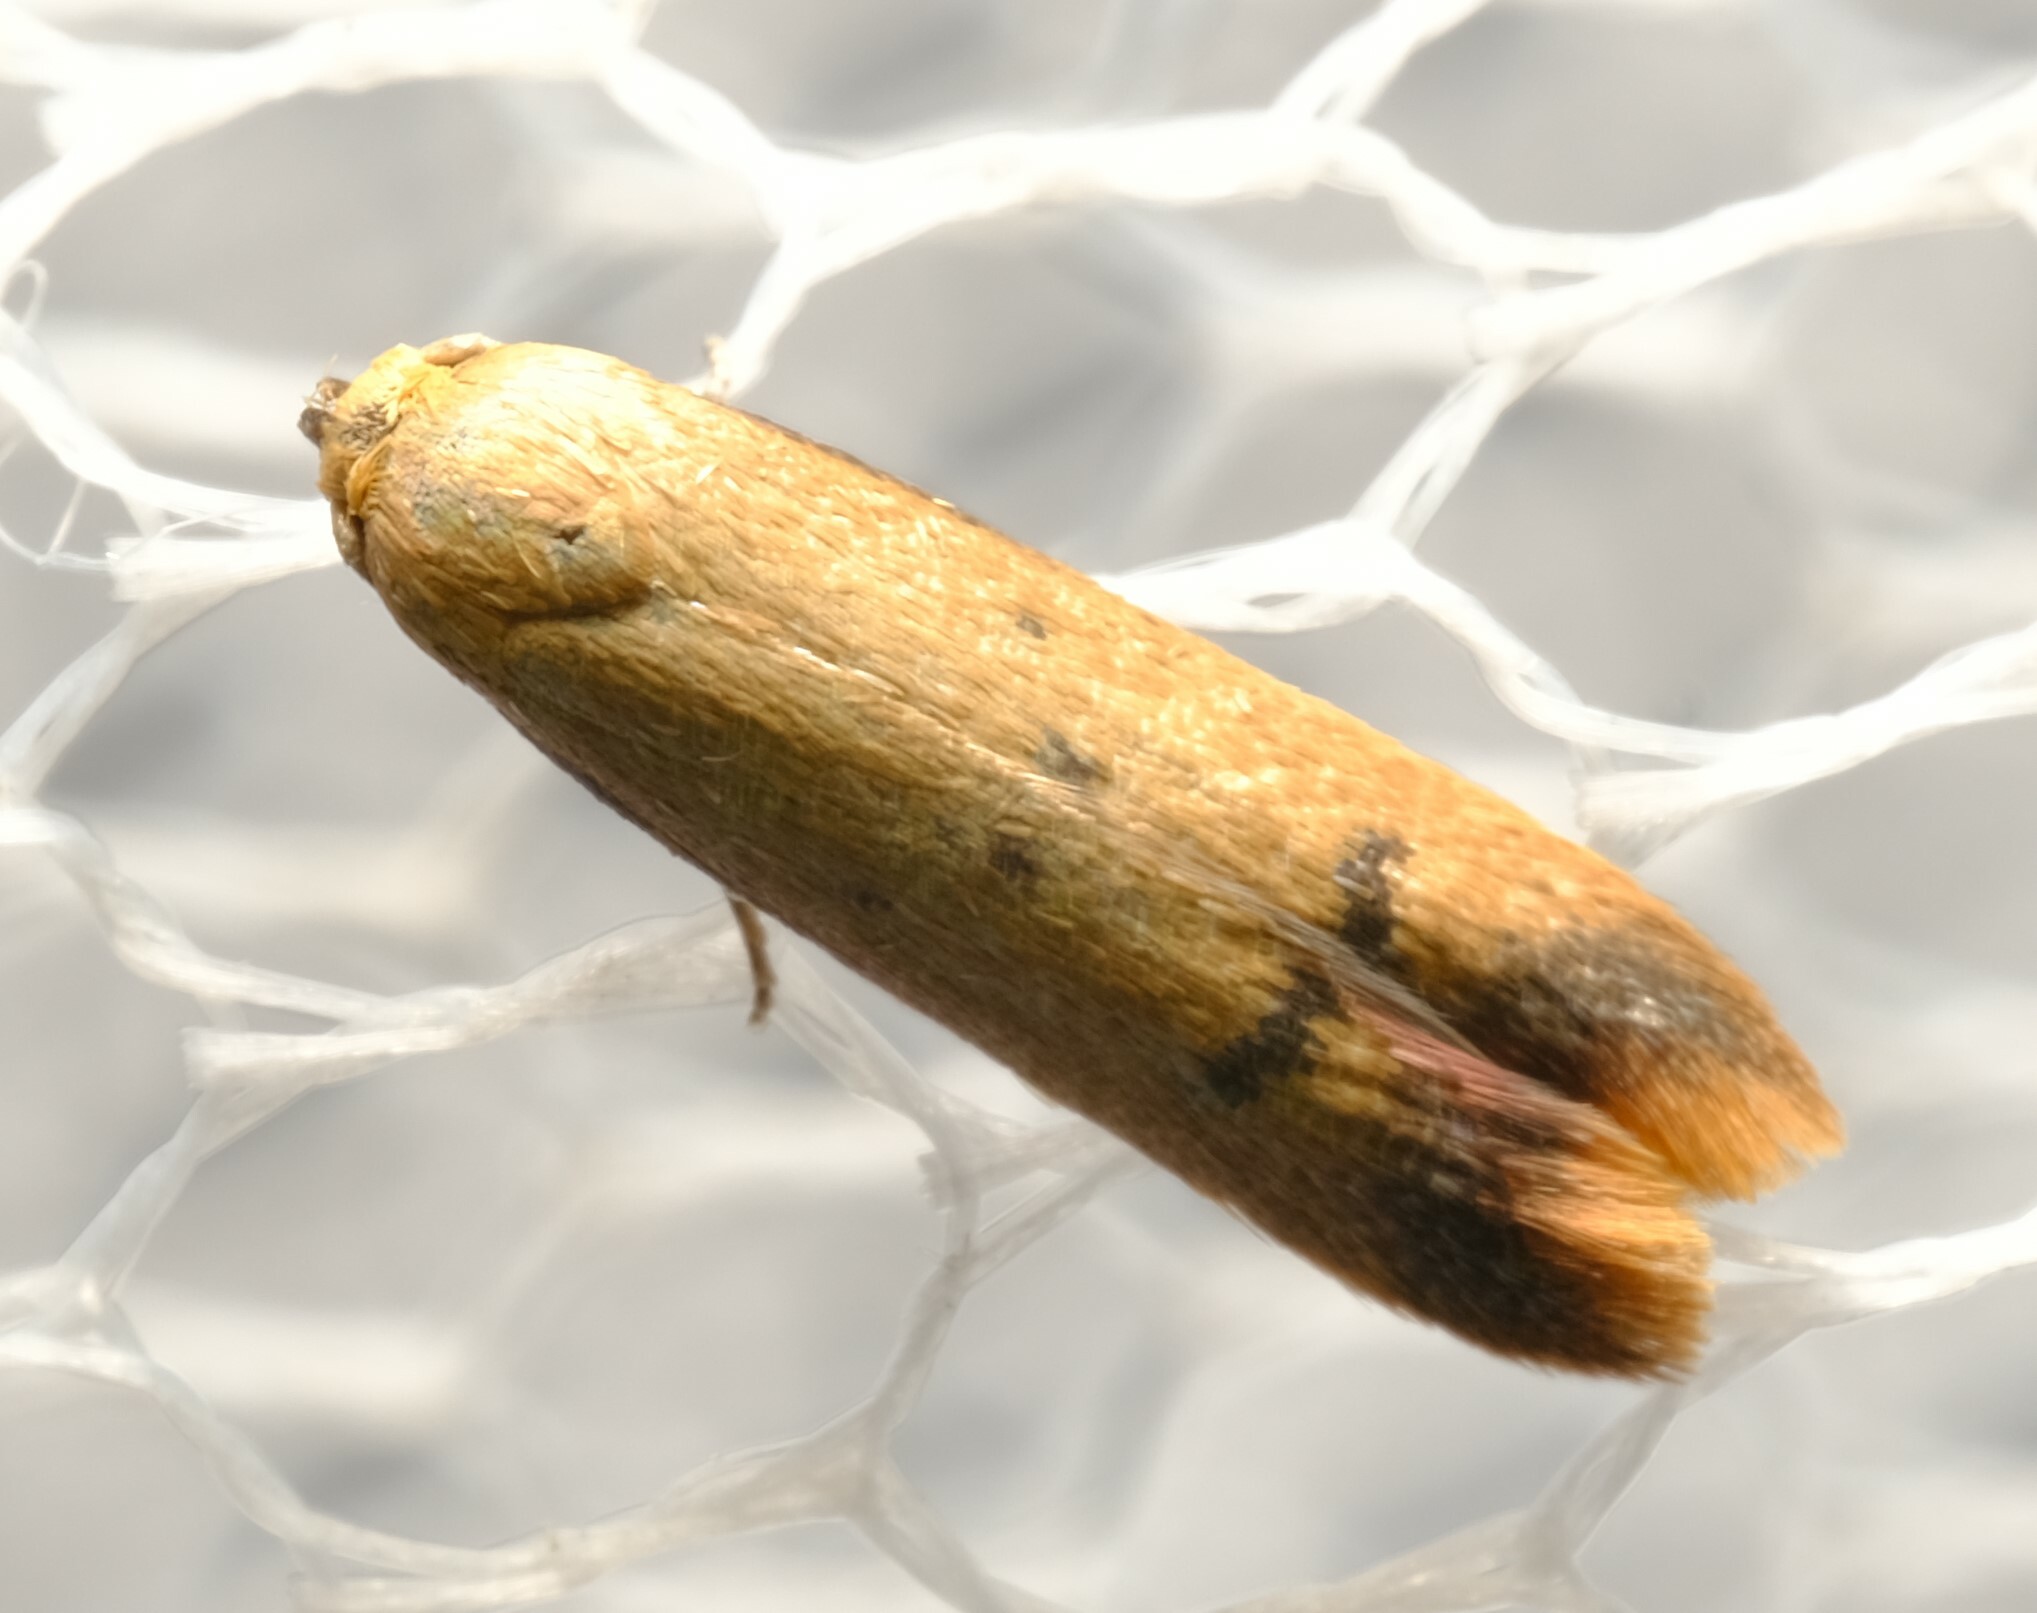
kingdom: Animalia
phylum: Arthropoda
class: Insecta
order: Lepidoptera
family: Oecophoridae
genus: Tachystola
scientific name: Tachystola hemisema
